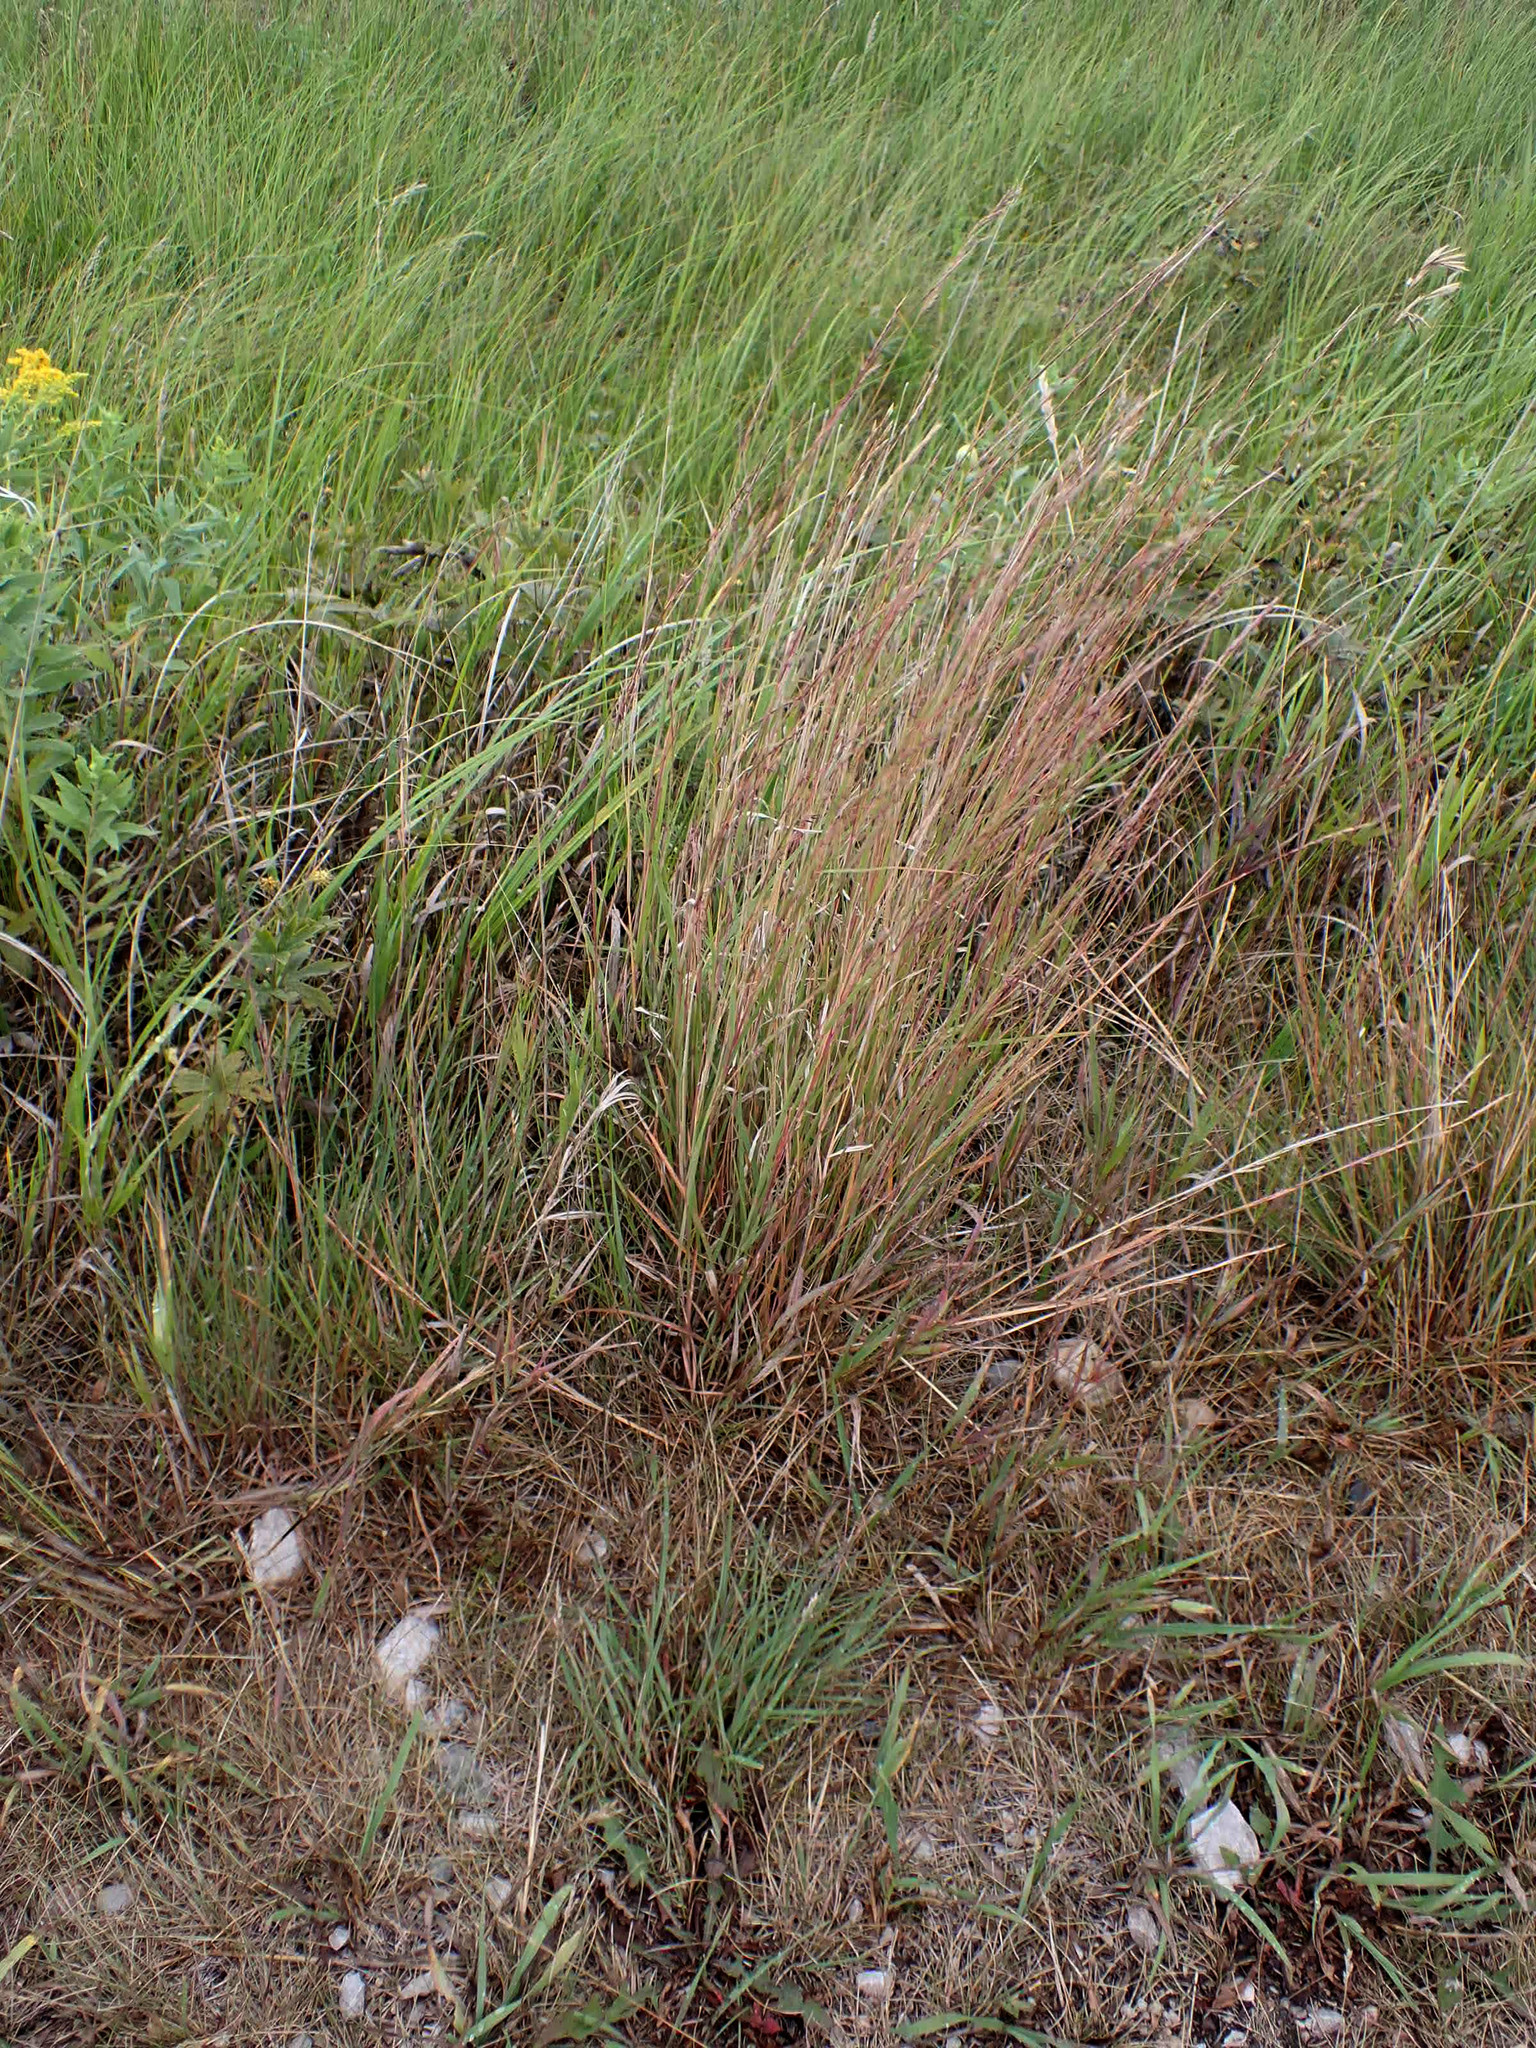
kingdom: Plantae
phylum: Tracheophyta
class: Liliopsida
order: Poales
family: Poaceae
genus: Schizachyrium
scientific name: Schizachyrium scoparium
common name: Little bluestem
